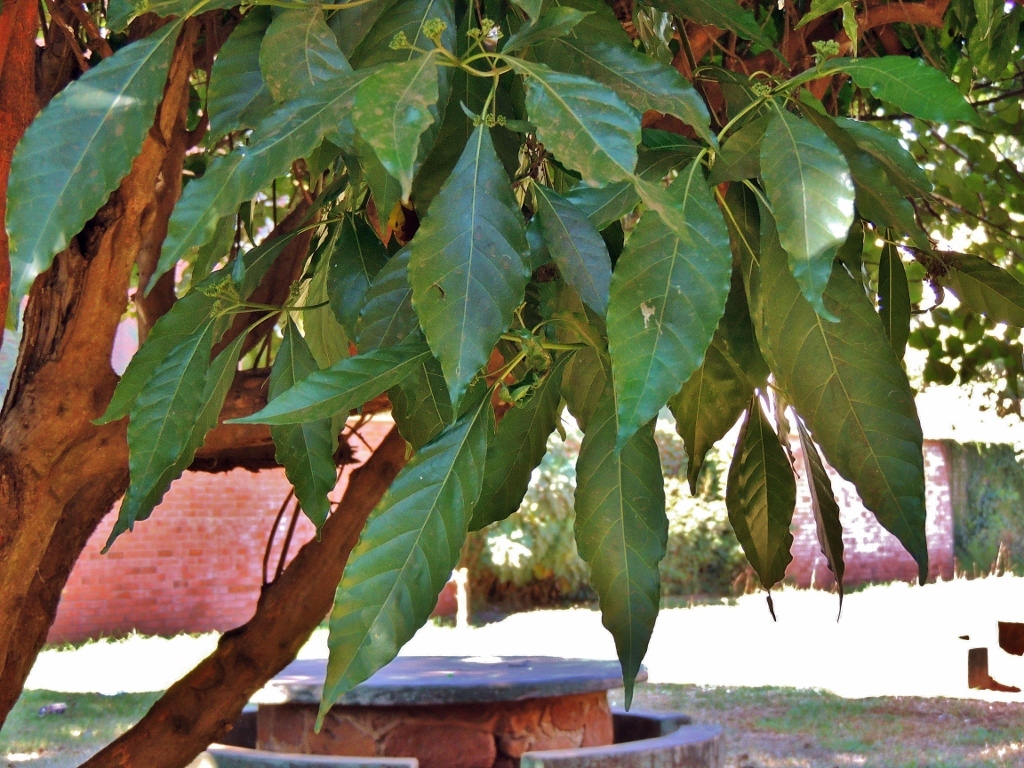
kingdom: Plantae
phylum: Tracheophyta
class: Magnoliopsida
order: Gentianales
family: Rubiaceae
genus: Tarenna
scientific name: Tarenna pavettoides
